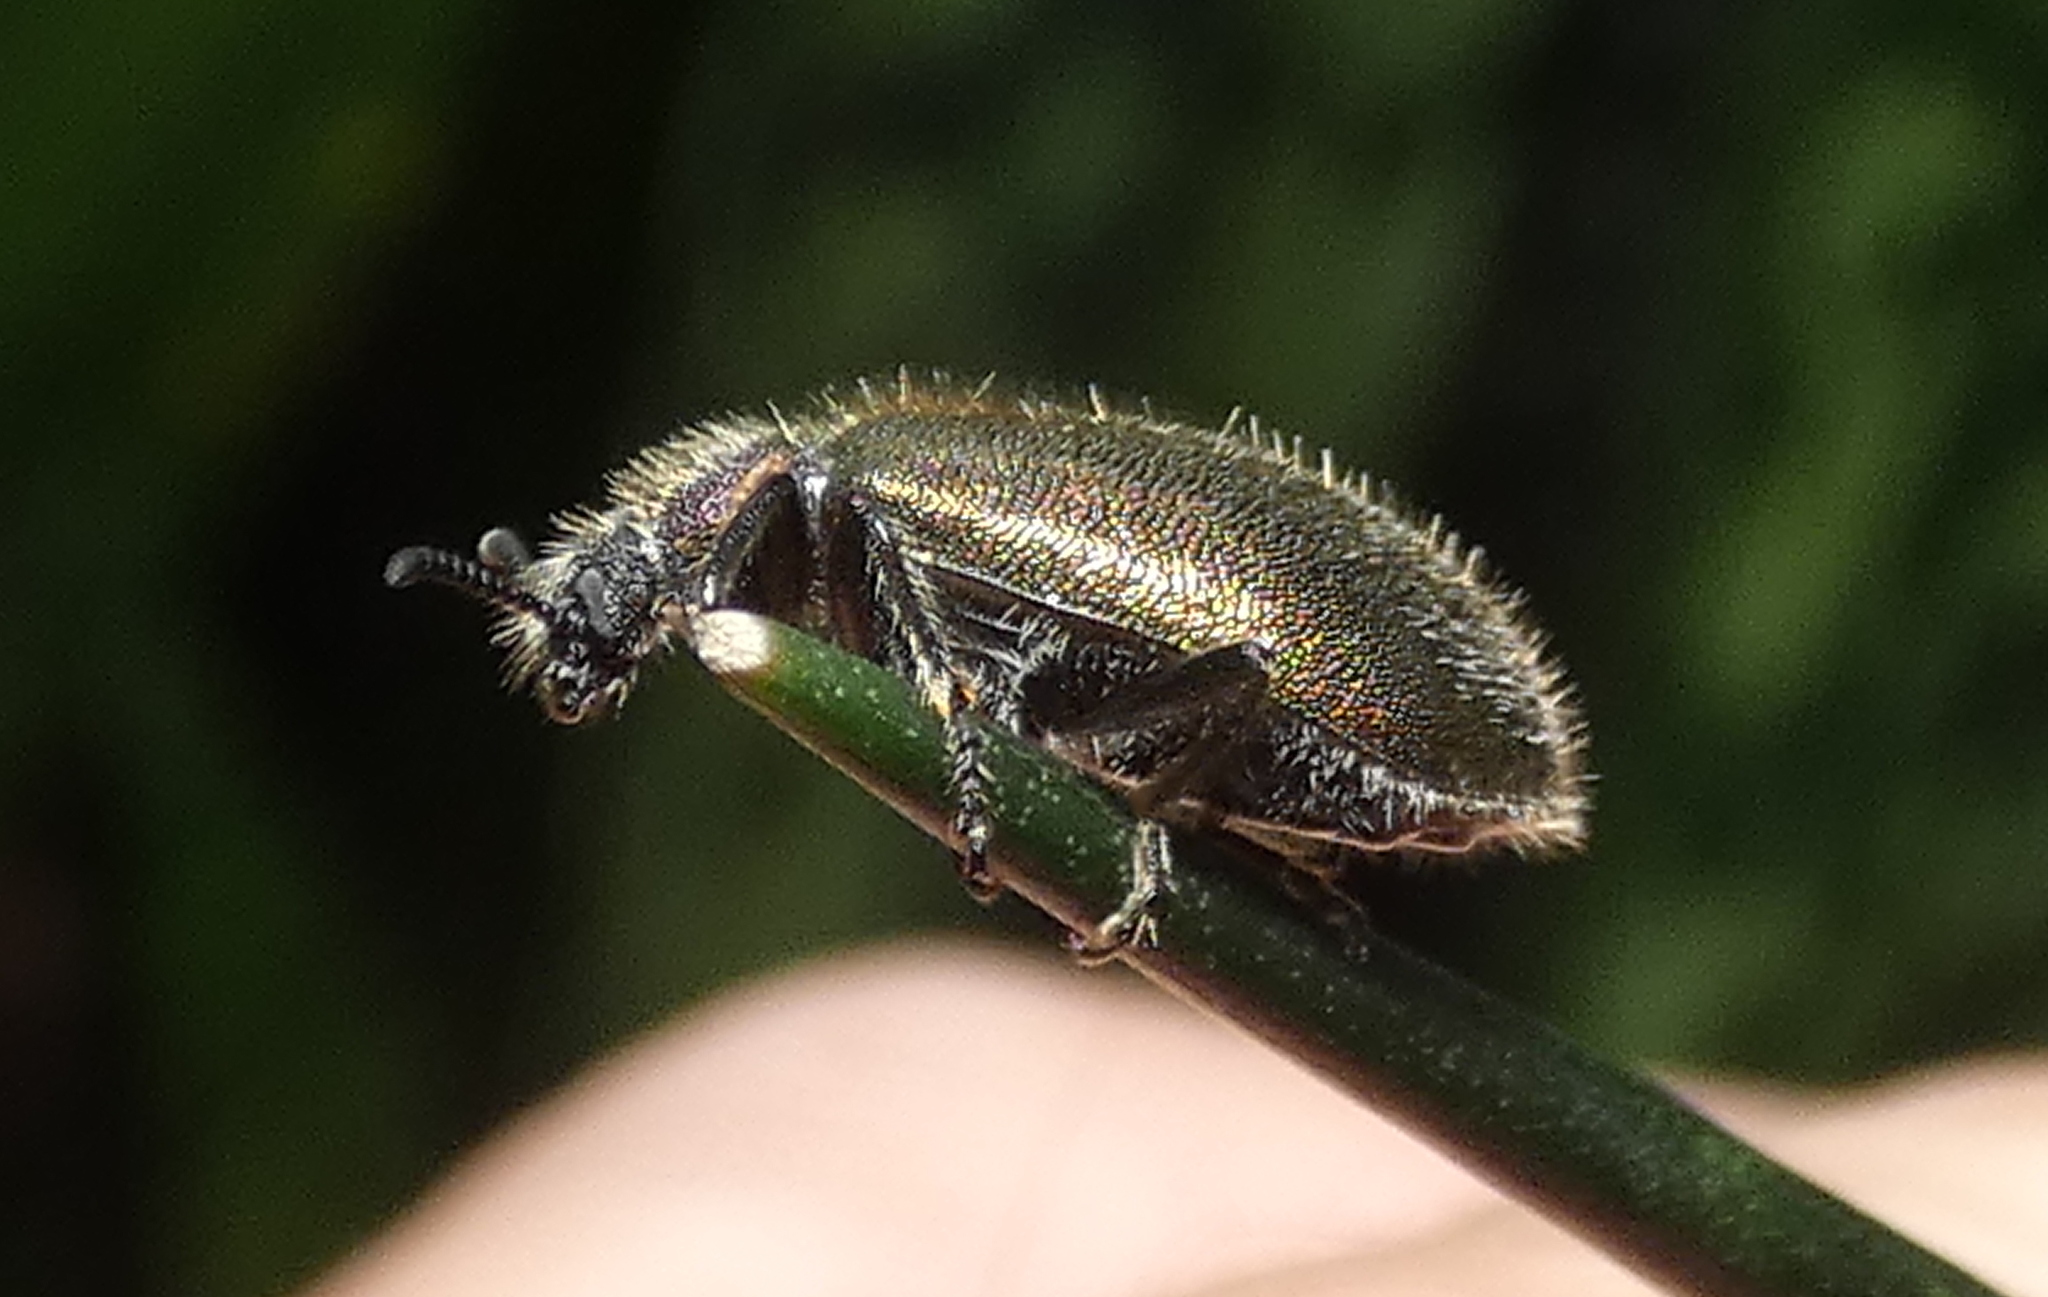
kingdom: Animalia
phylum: Arthropoda
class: Insecta
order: Coleoptera
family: Tenebrionidae
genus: Lagria
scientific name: Lagria villosa
